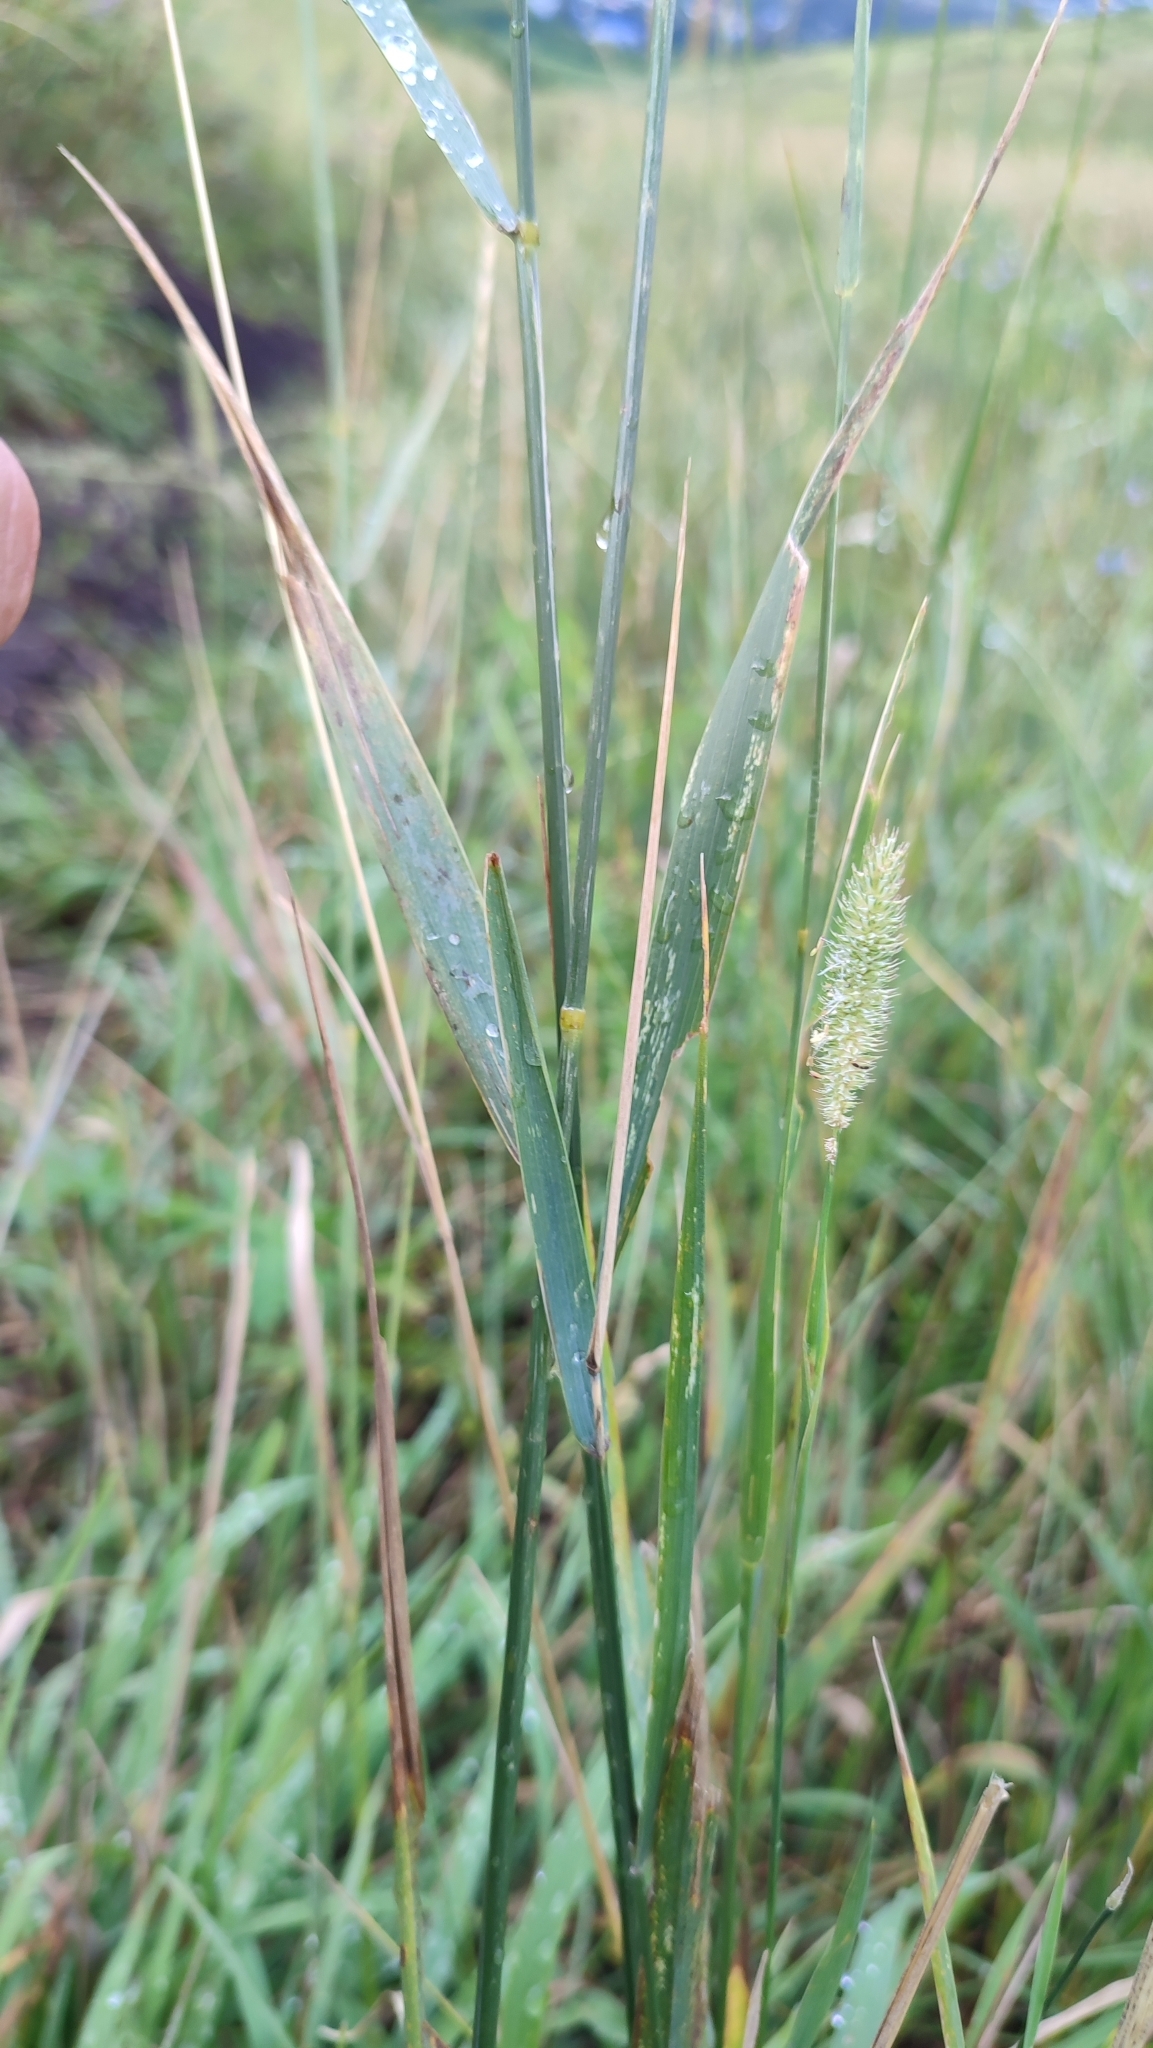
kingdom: Plantae
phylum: Tracheophyta
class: Liliopsida
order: Poales
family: Poaceae
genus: Phleum
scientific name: Phleum pratense
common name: Timothy grass
